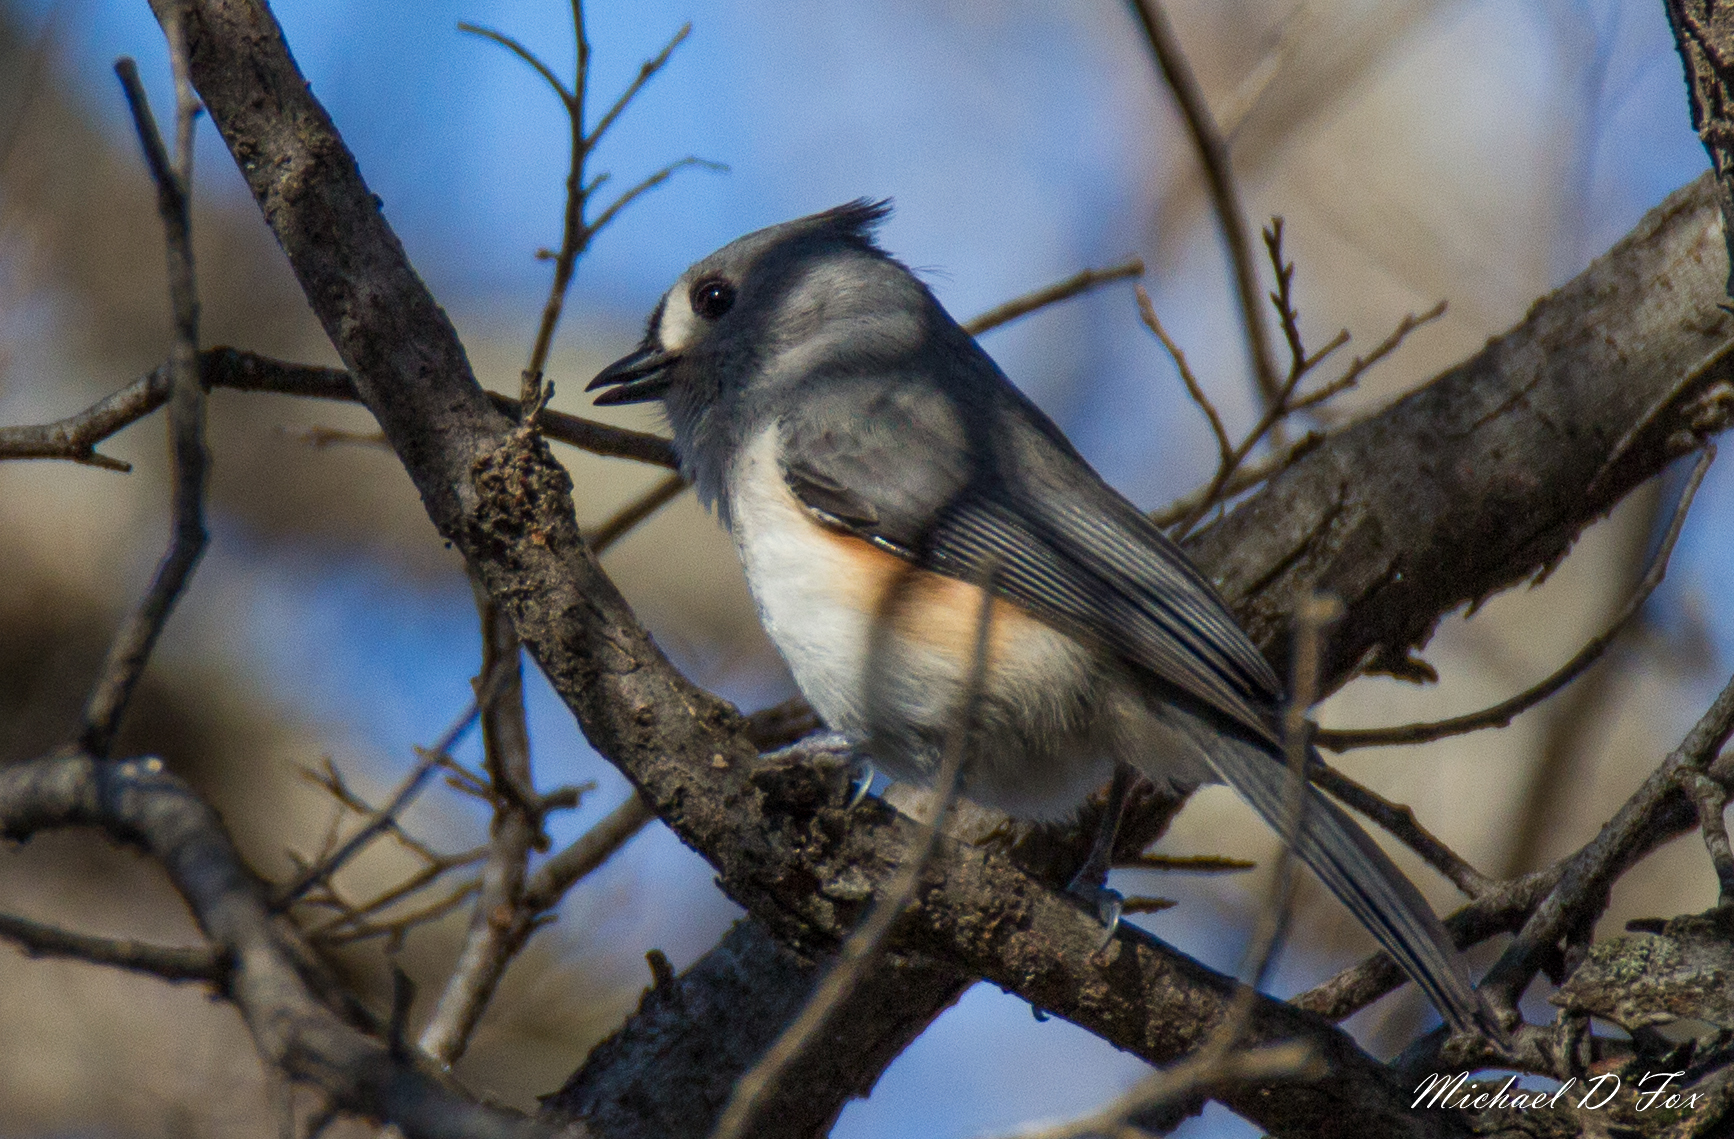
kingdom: Animalia
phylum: Chordata
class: Aves
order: Passeriformes
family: Paridae
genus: Baeolophus
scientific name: Baeolophus bicolor
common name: Tufted titmouse
